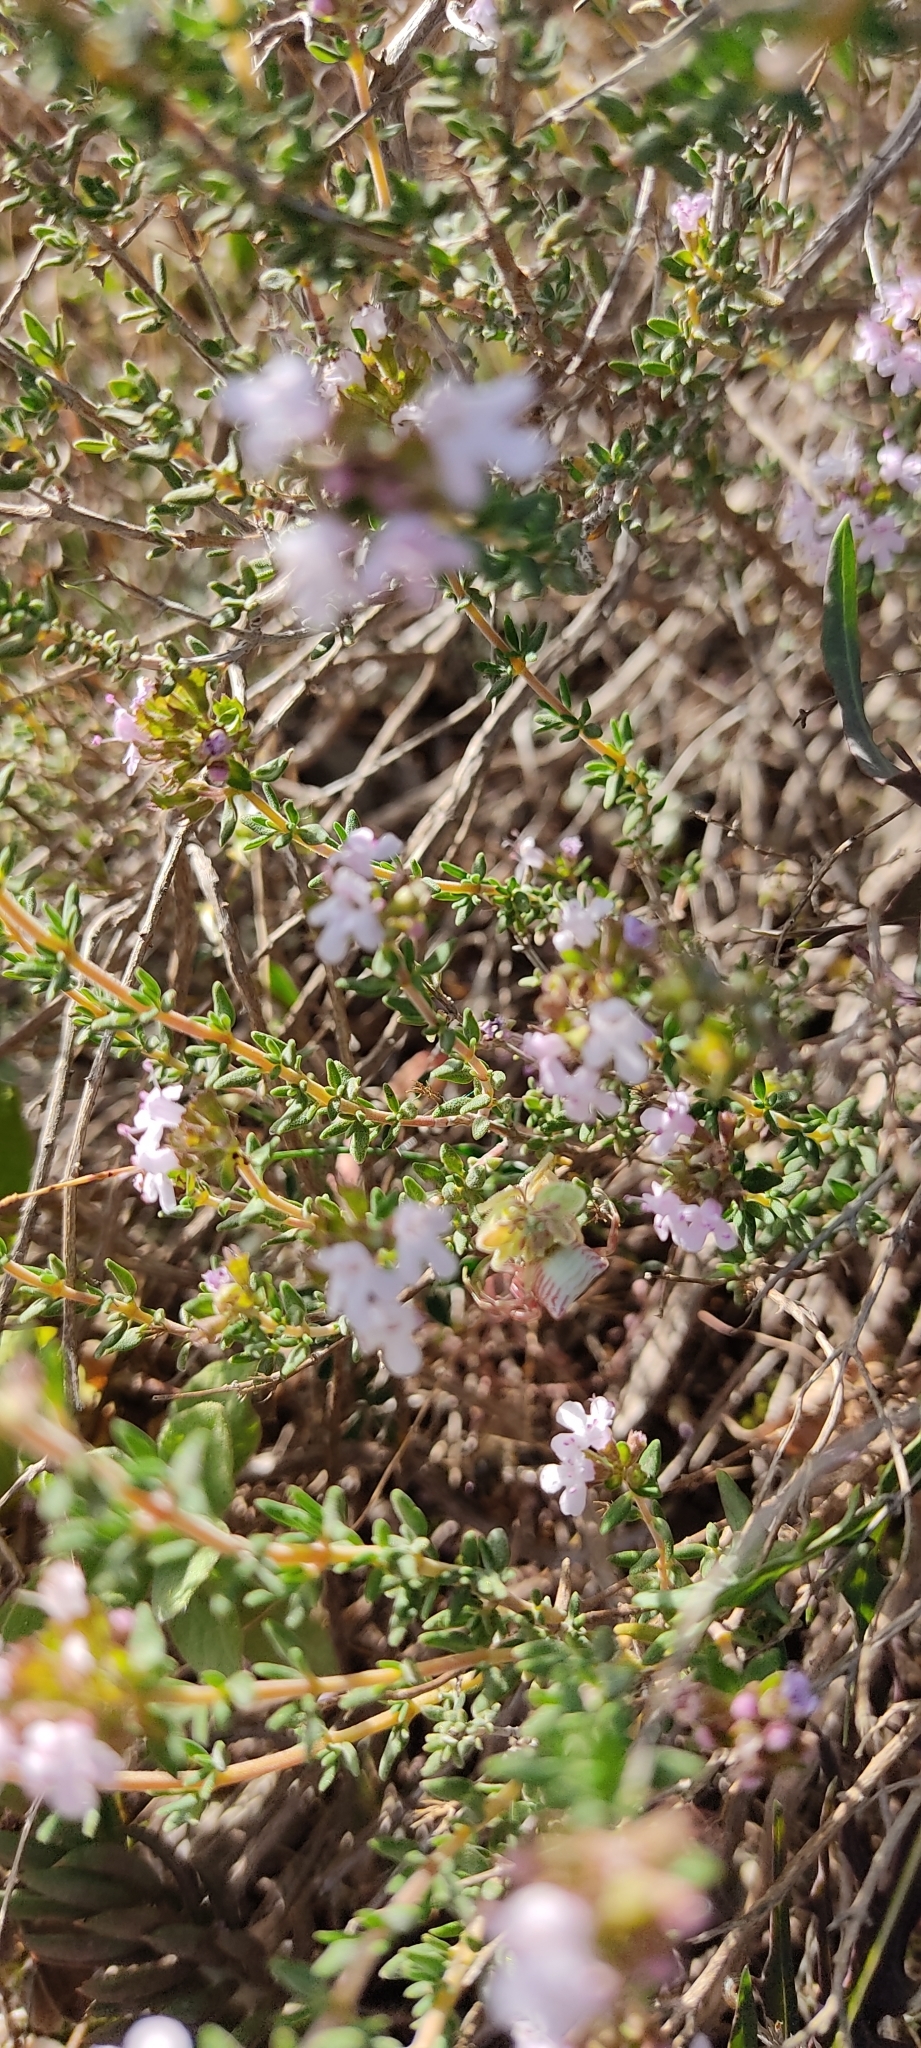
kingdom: Animalia
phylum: Arthropoda
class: Arachnida
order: Araneae
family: Thomisidae
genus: Thomisus
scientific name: Thomisus onustus
